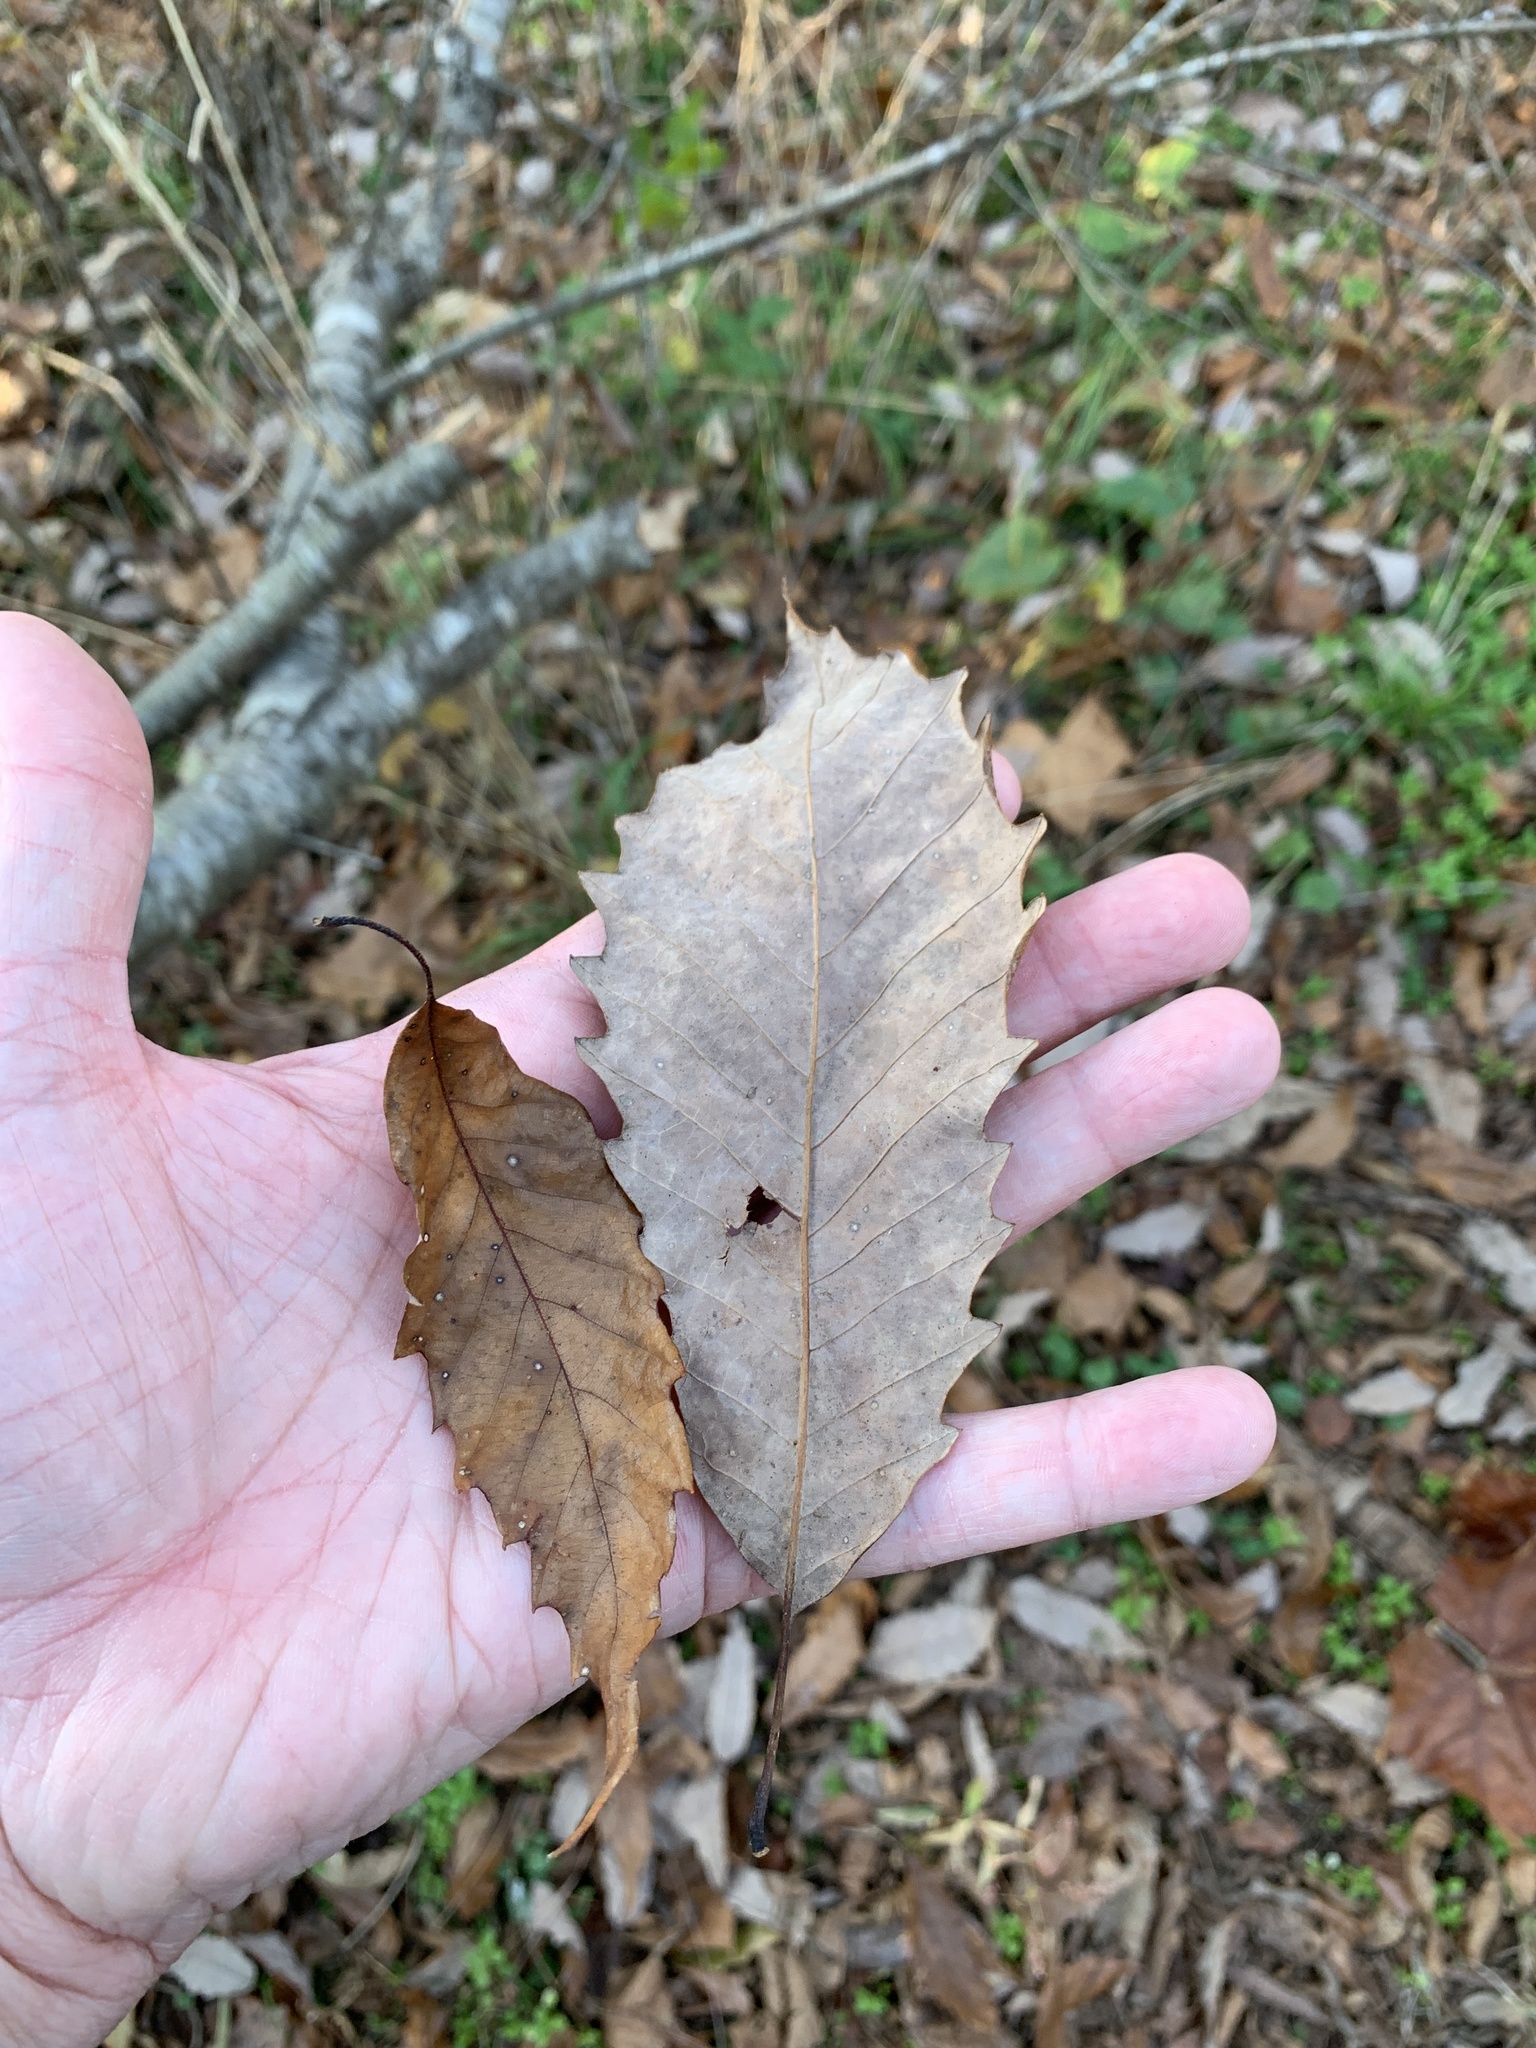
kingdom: Plantae
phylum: Tracheophyta
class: Magnoliopsida
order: Fagales
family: Fagaceae
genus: Quercus
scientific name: Quercus muehlenbergii
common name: Chinkapin oak
